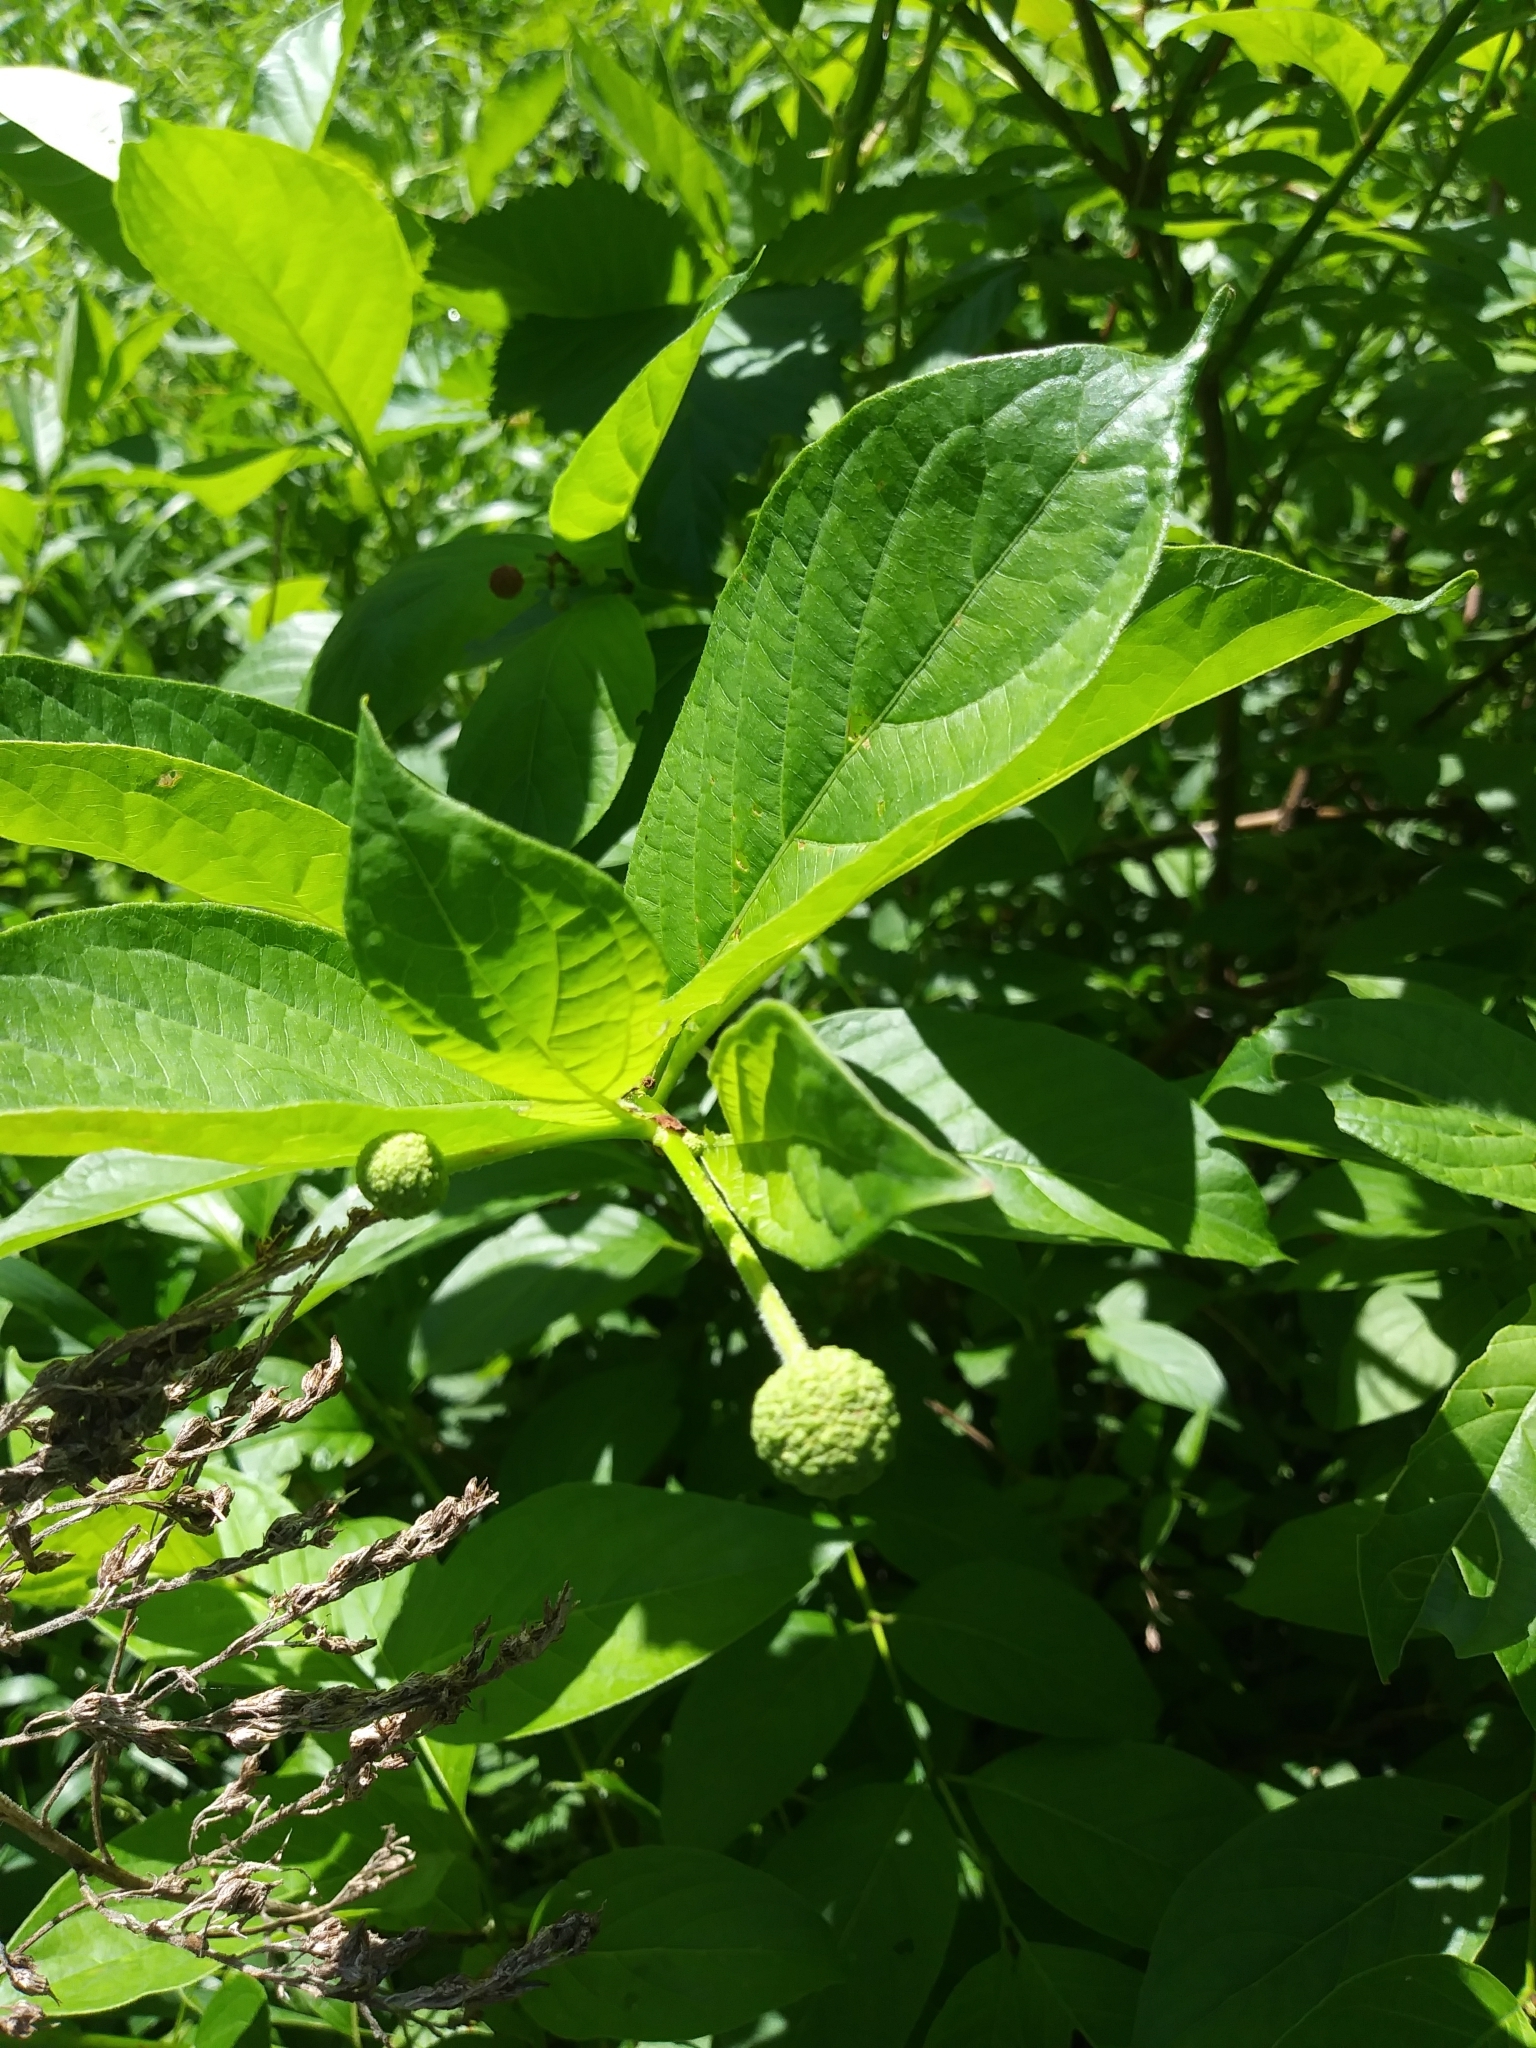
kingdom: Plantae
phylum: Tracheophyta
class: Magnoliopsida
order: Gentianales
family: Rubiaceae
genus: Cephalanthus
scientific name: Cephalanthus occidentalis
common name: Button-willow
